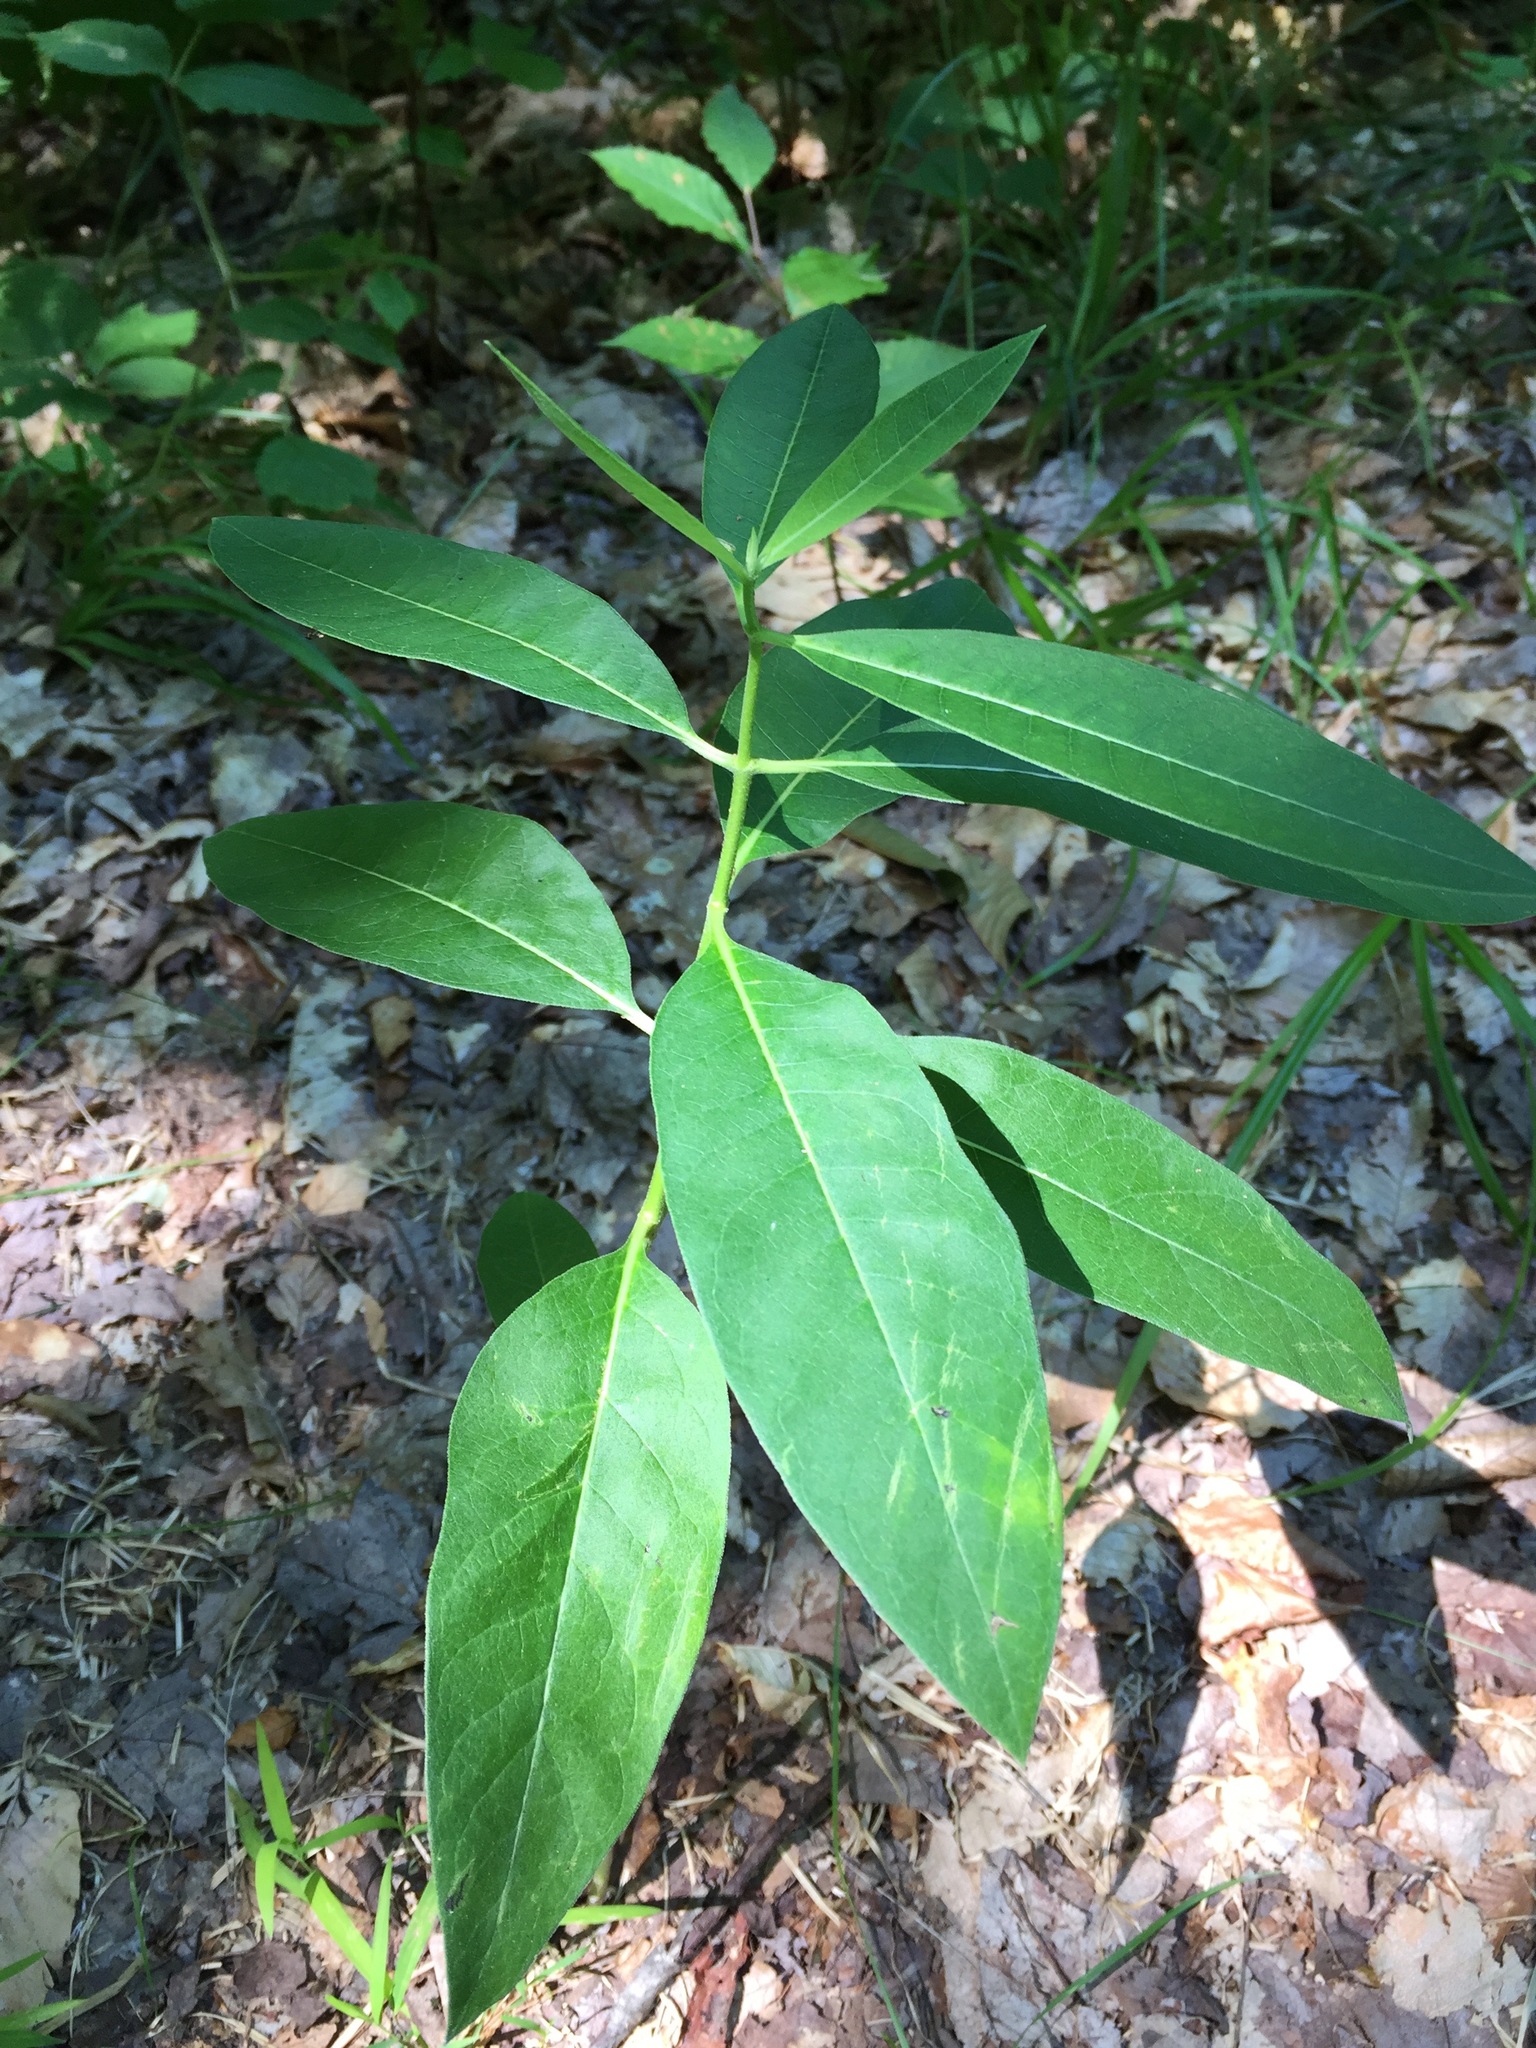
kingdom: Plantae
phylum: Tracheophyta
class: Magnoliopsida
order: Gentianales
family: Apocynaceae
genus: Asclepias
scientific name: Asclepias syriaca
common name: Common milkweed
